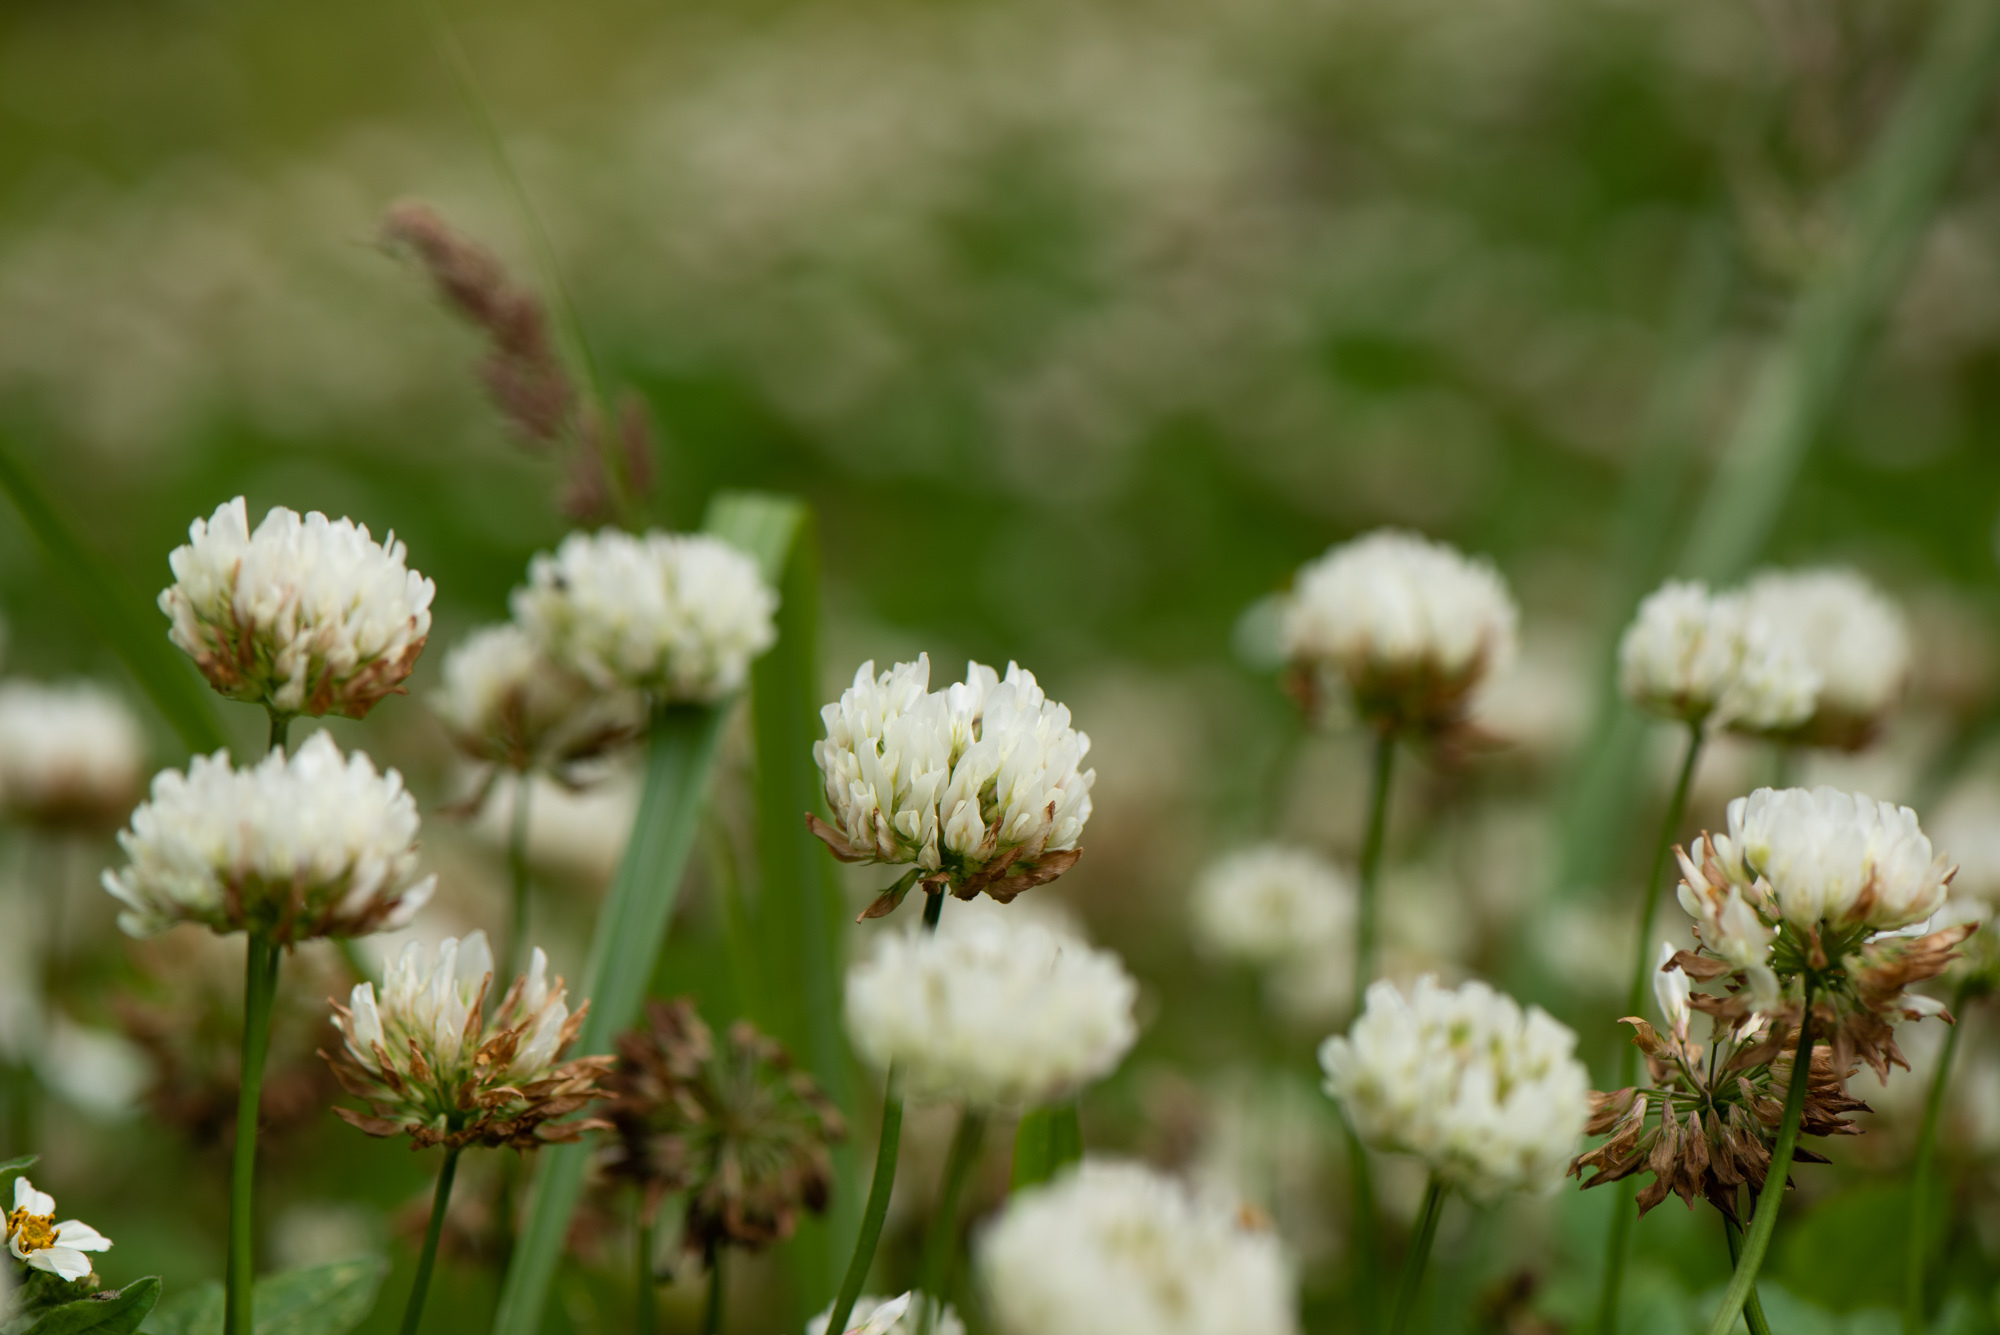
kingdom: Plantae
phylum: Tracheophyta
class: Magnoliopsida
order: Fabales
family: Fabaceae
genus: Trifolium
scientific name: Trifolium repens
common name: White clover
